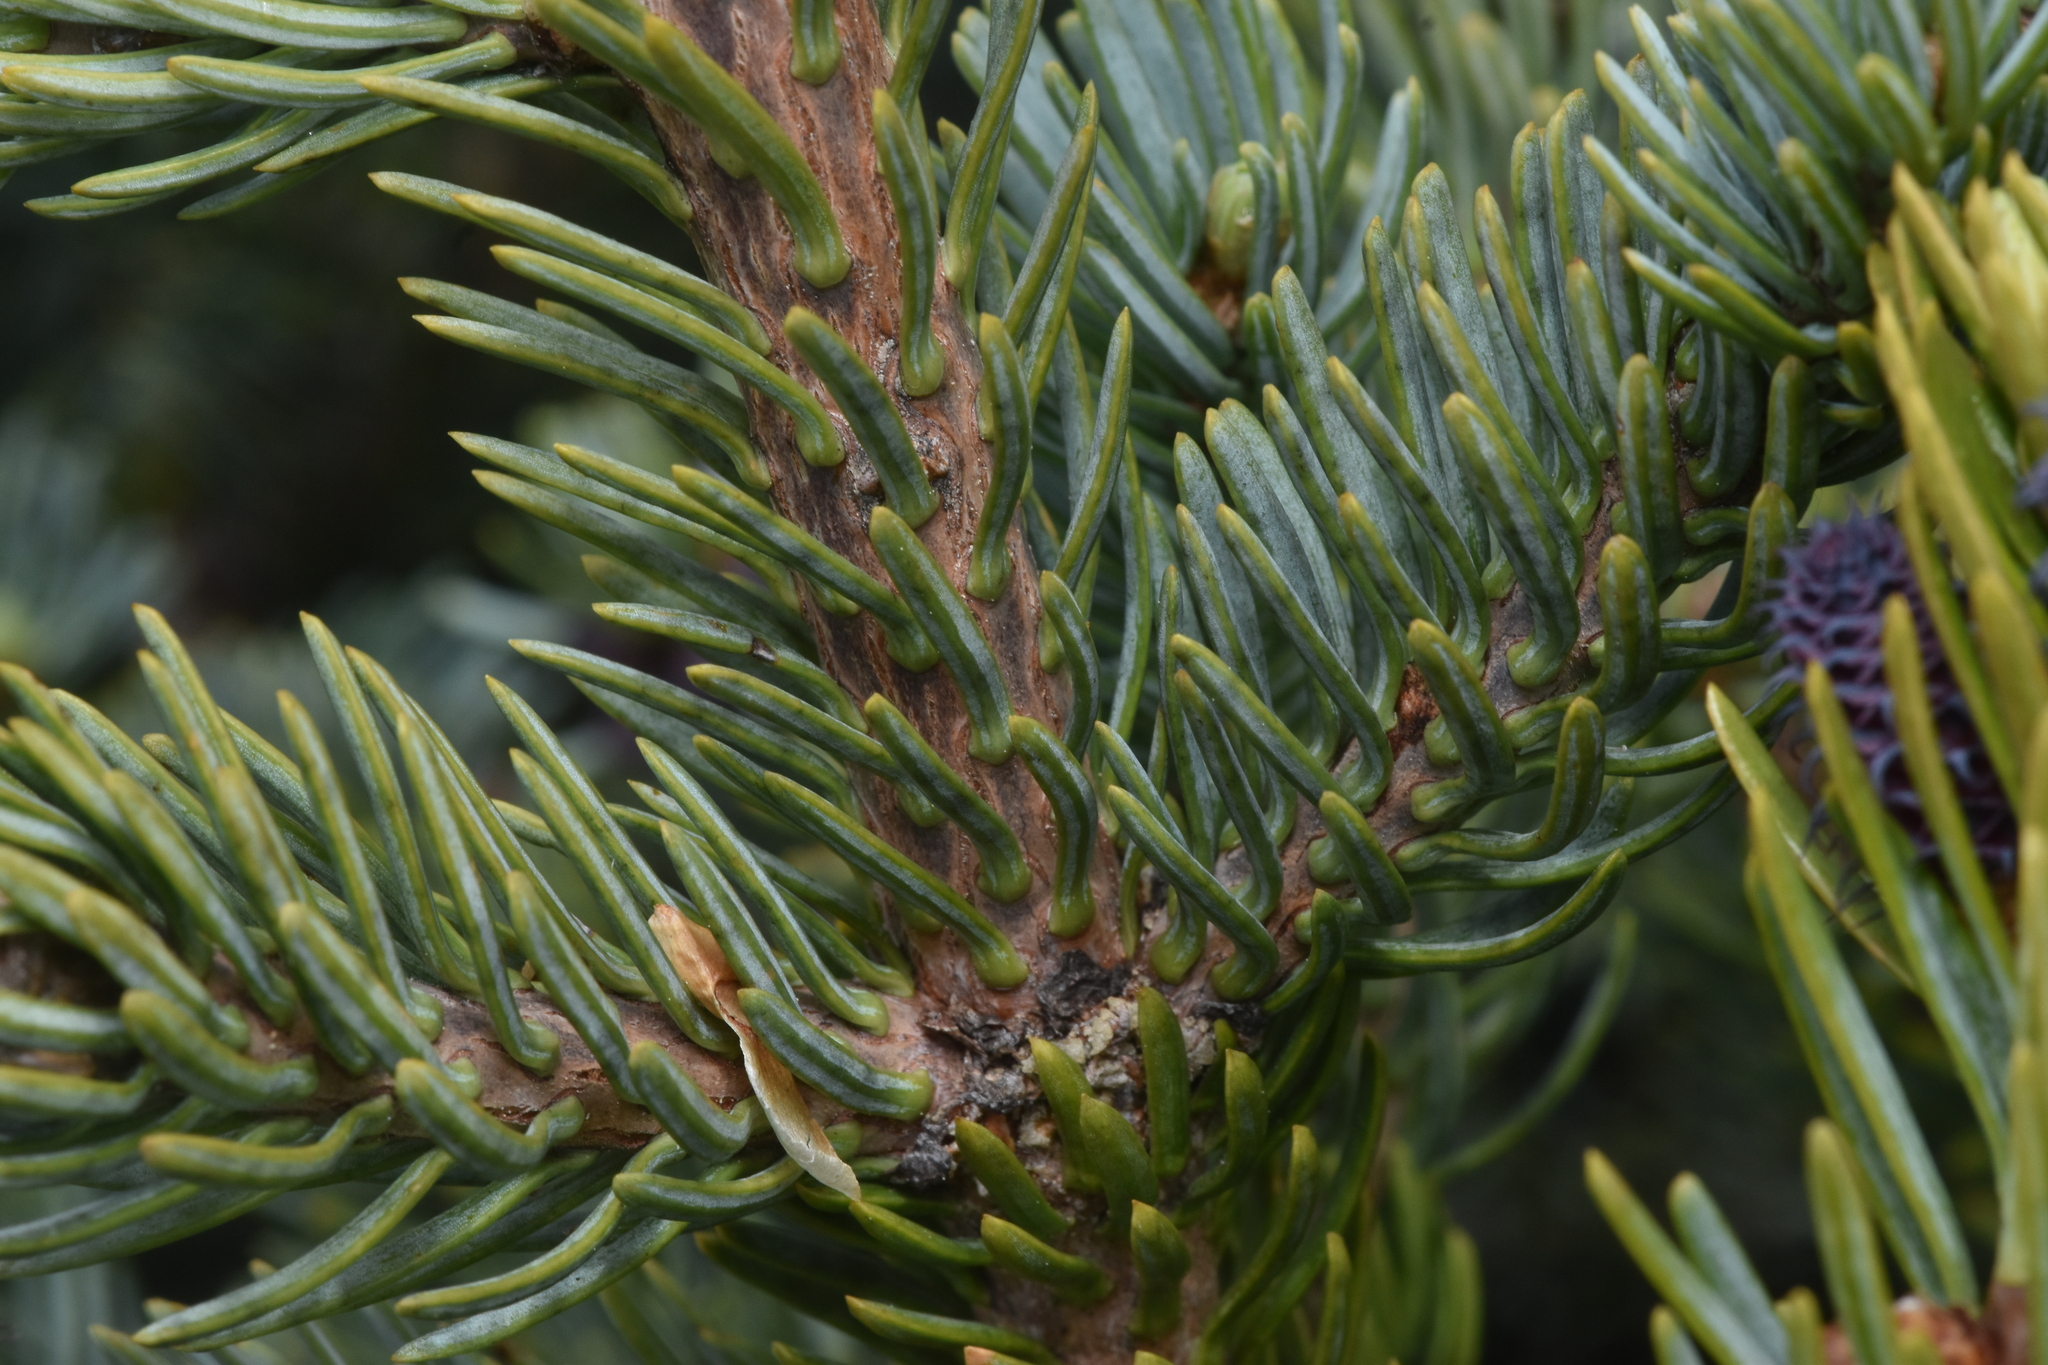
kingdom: Plantae
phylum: Tracheophyta
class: Pinopsida
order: Pinales
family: Pinaceae
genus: Abies
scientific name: Abies lasiocarpa
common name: Subalpine fir
